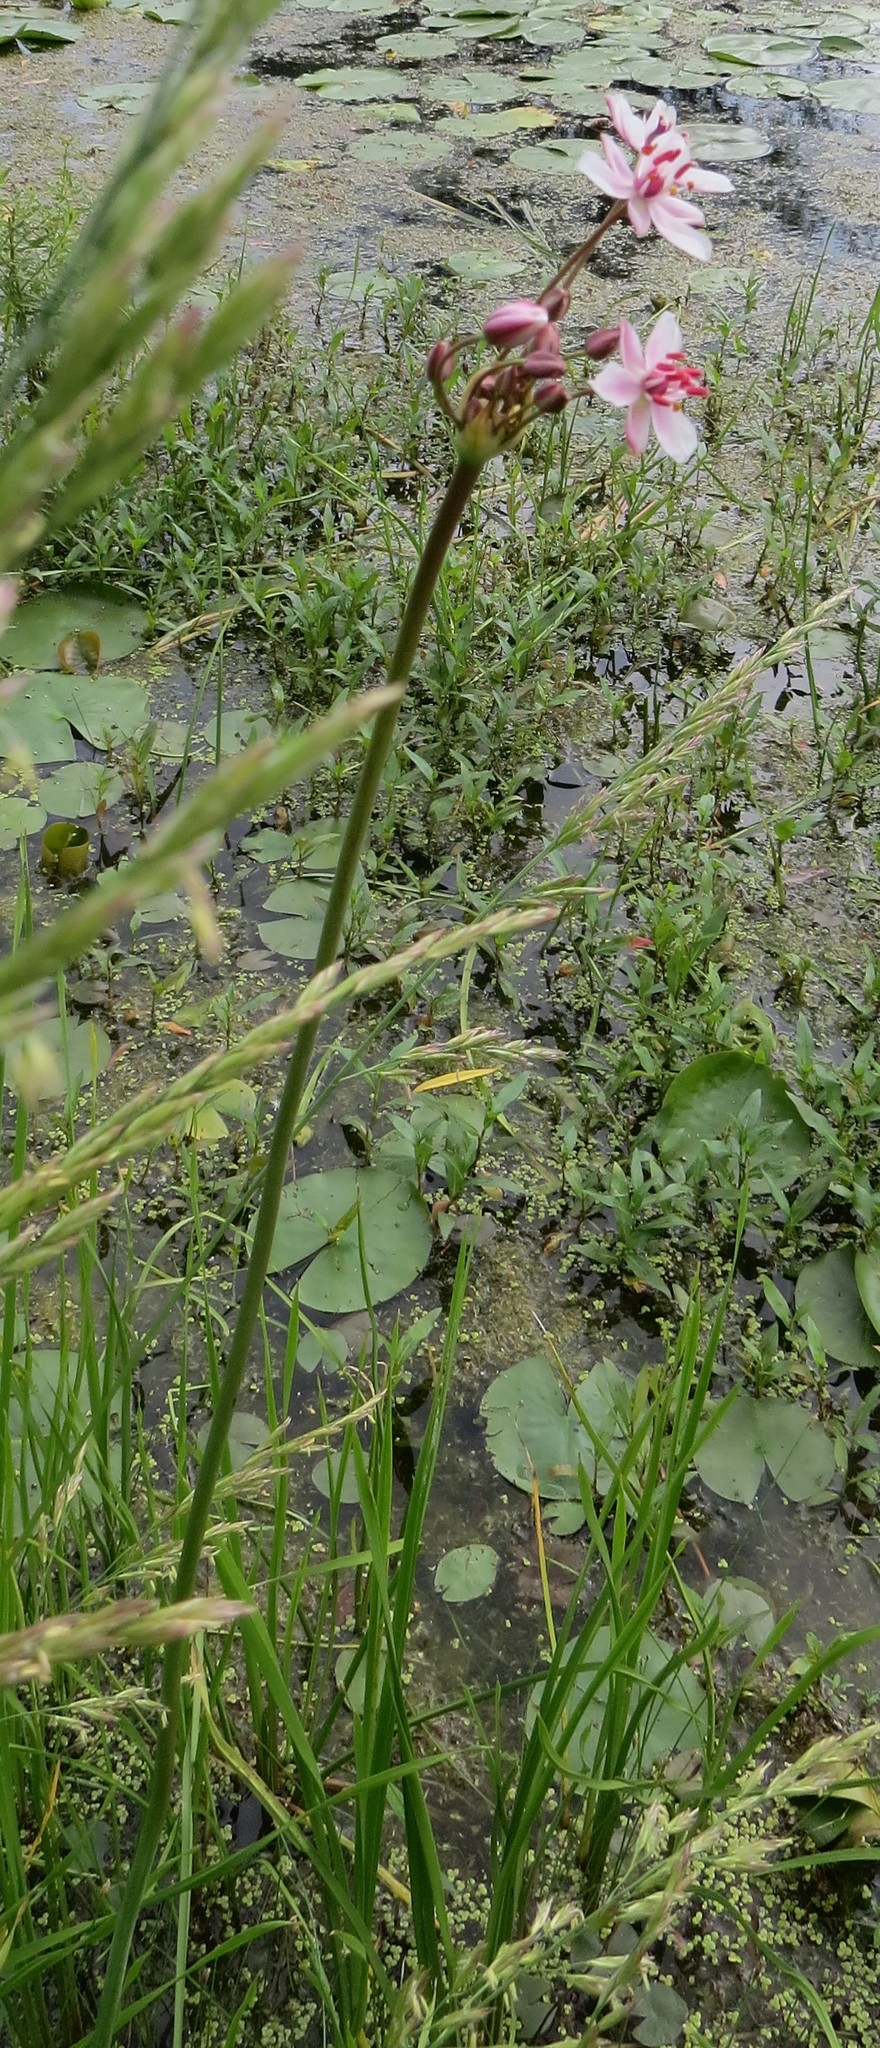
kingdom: Plantae
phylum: Tracheophyta
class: Liliopsida
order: Alismatales
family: Butomaceae
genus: Butomus
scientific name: Butomus umbellatus
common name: Flowering-rush
